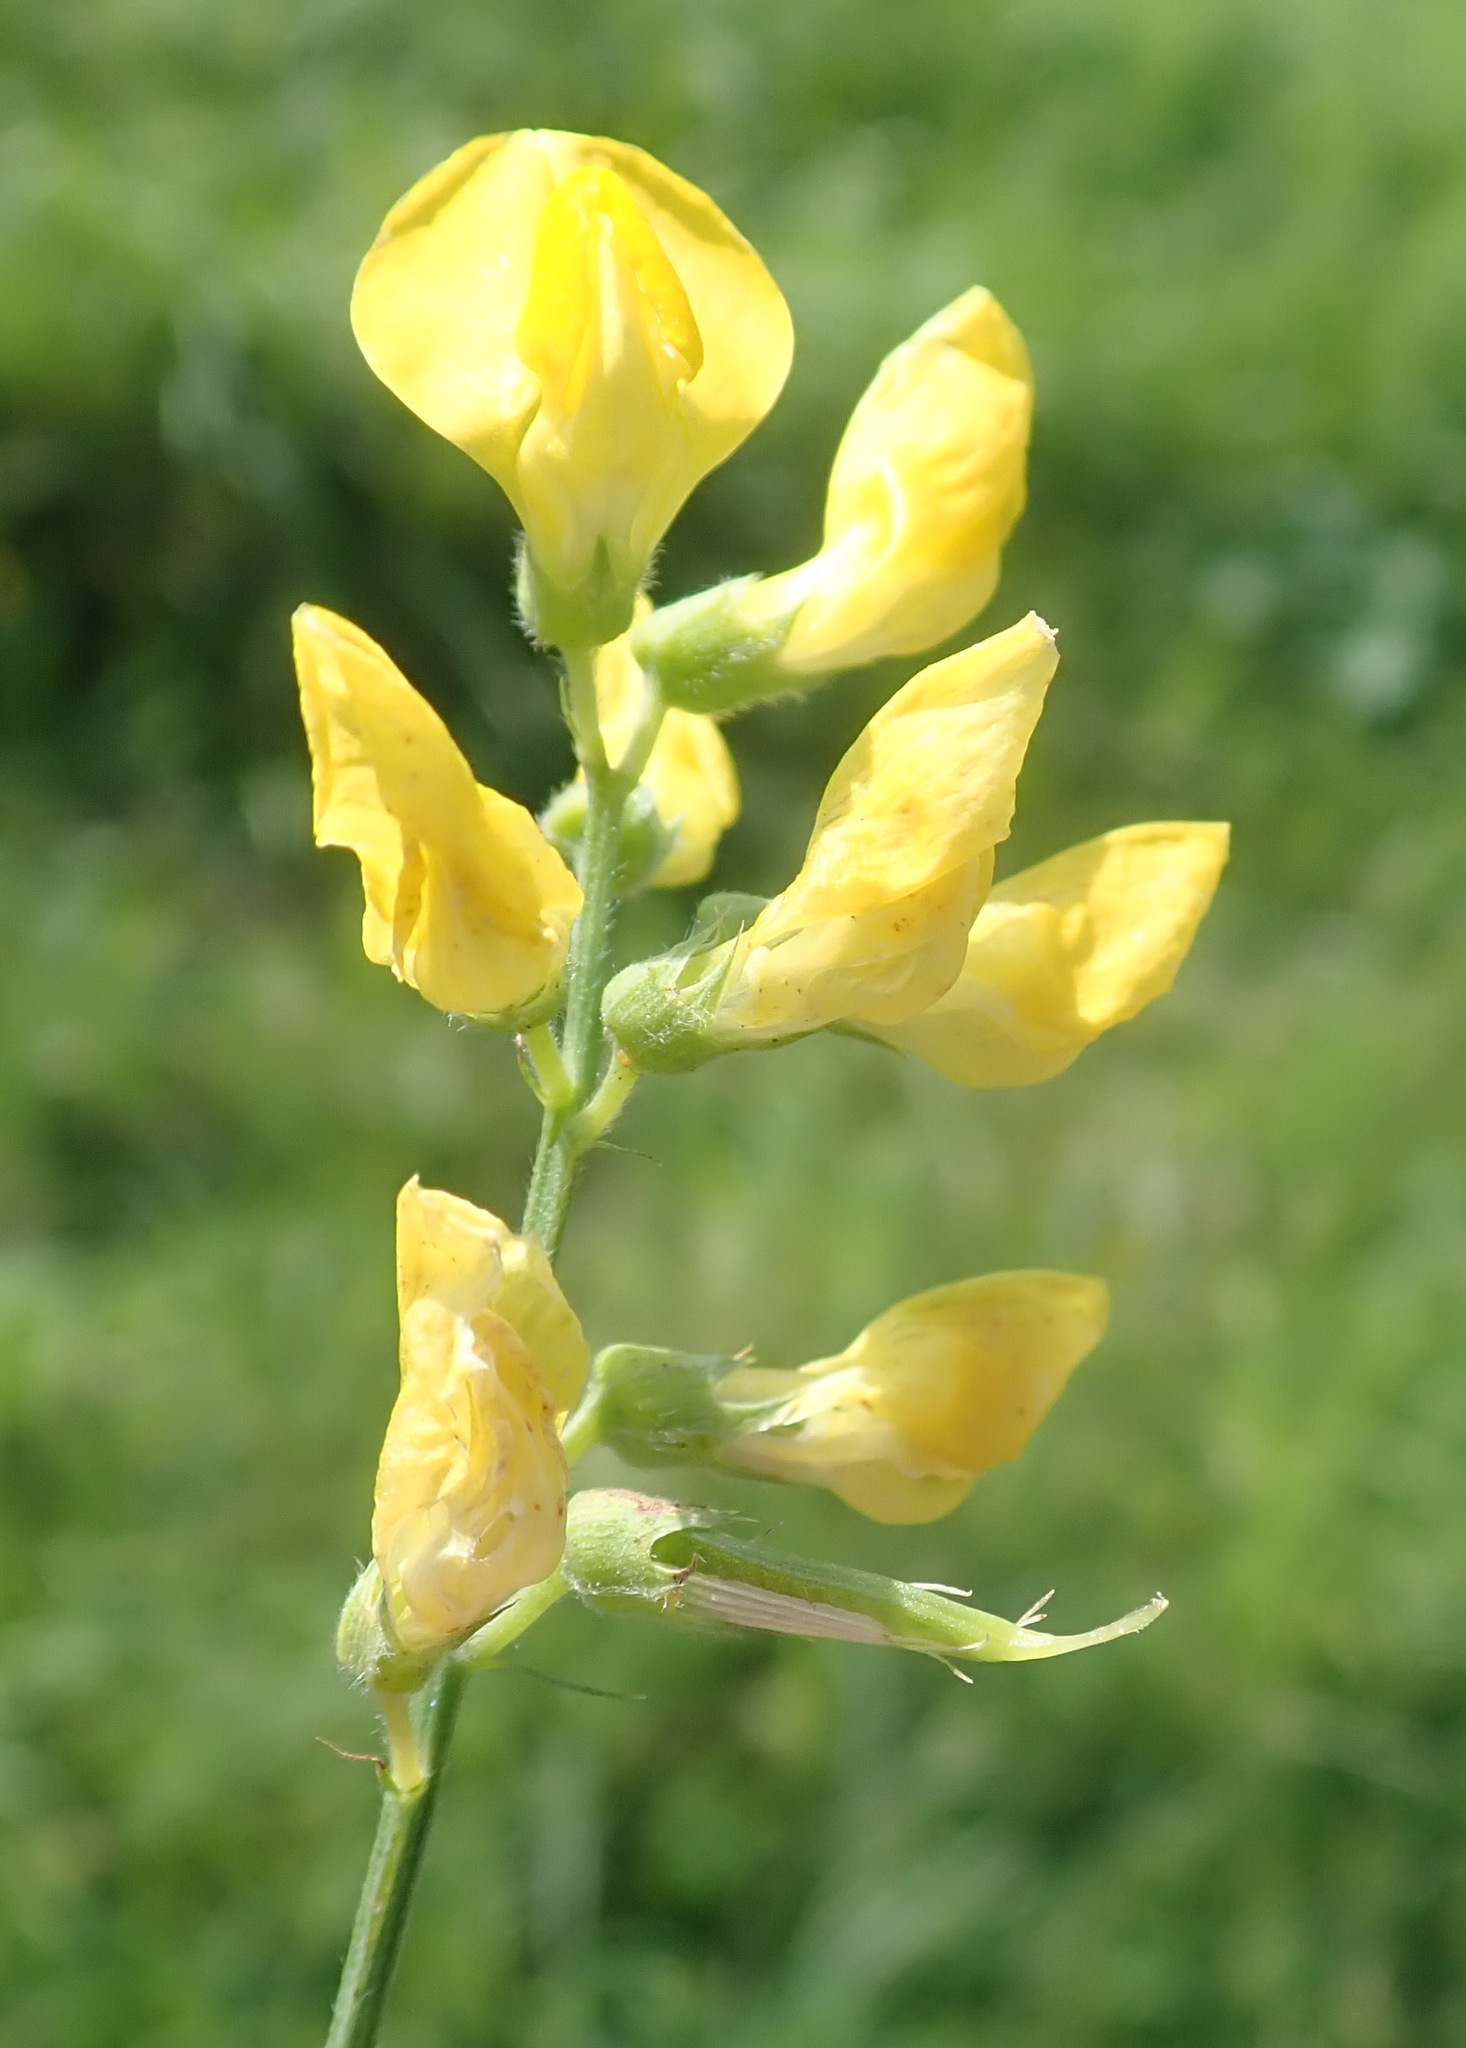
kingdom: Plantae
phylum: Tracheophyta
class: Magnoliopsida
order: Fabales
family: Fabaceae
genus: Lathyrus
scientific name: Lathyrus pratensis
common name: Meadow vetchling
